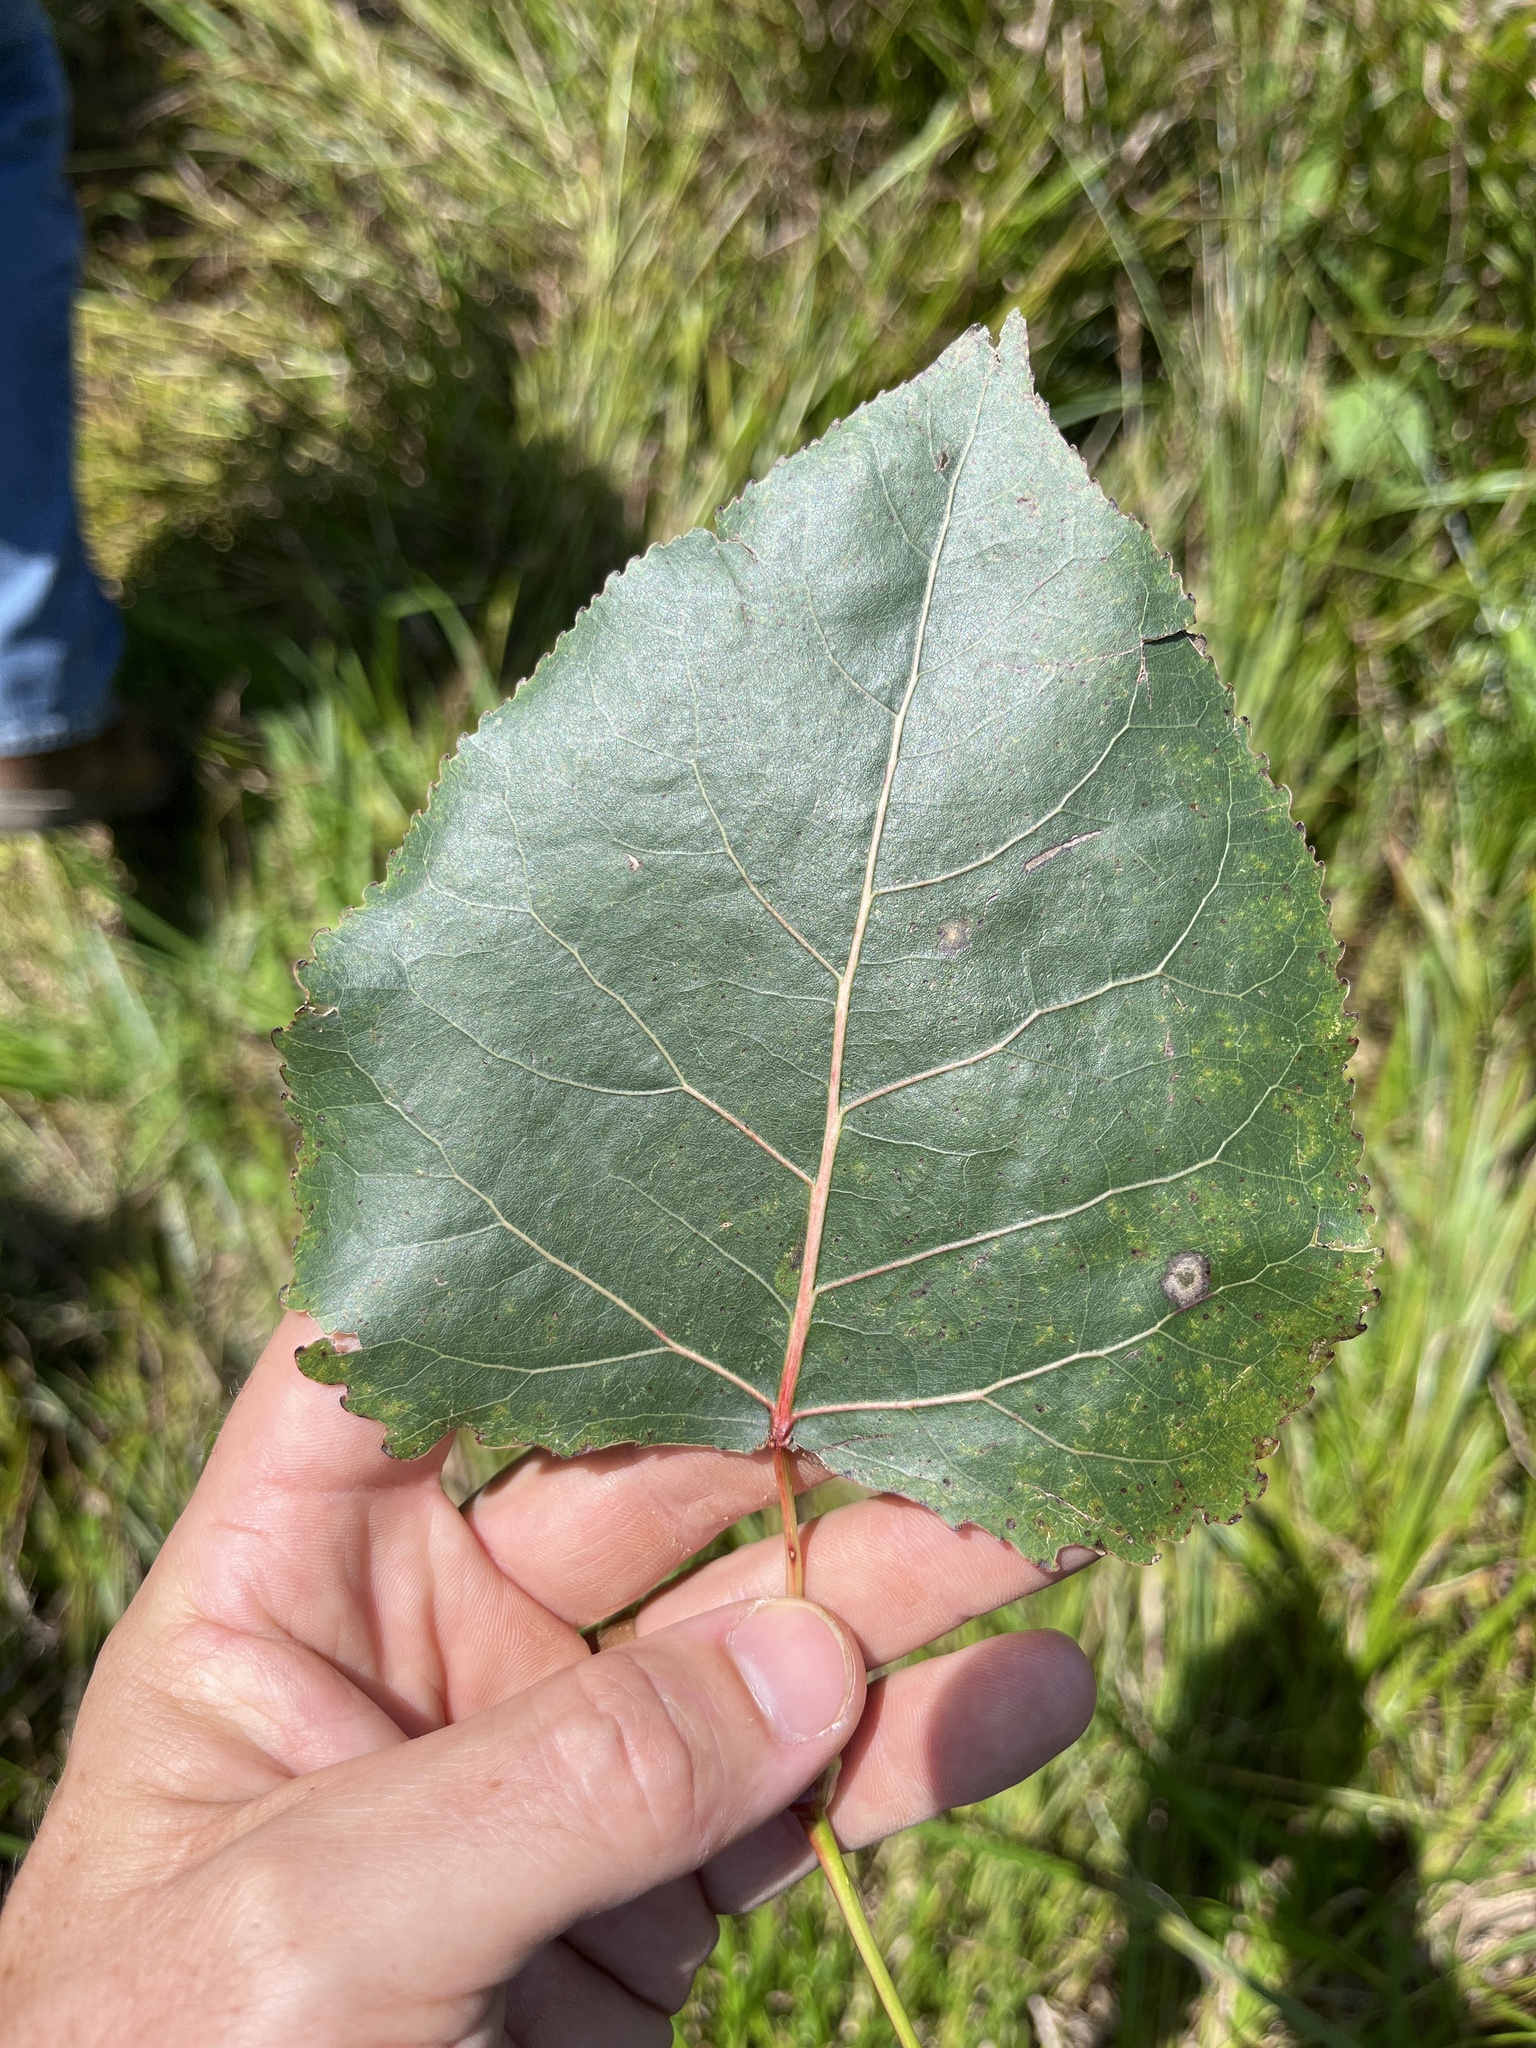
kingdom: Plantae
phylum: Tracheophyta
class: Magnoliopsida
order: Malpighiales
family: Salicaceae
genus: Populus
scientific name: Populus deltoides
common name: Eastern cottonwood
